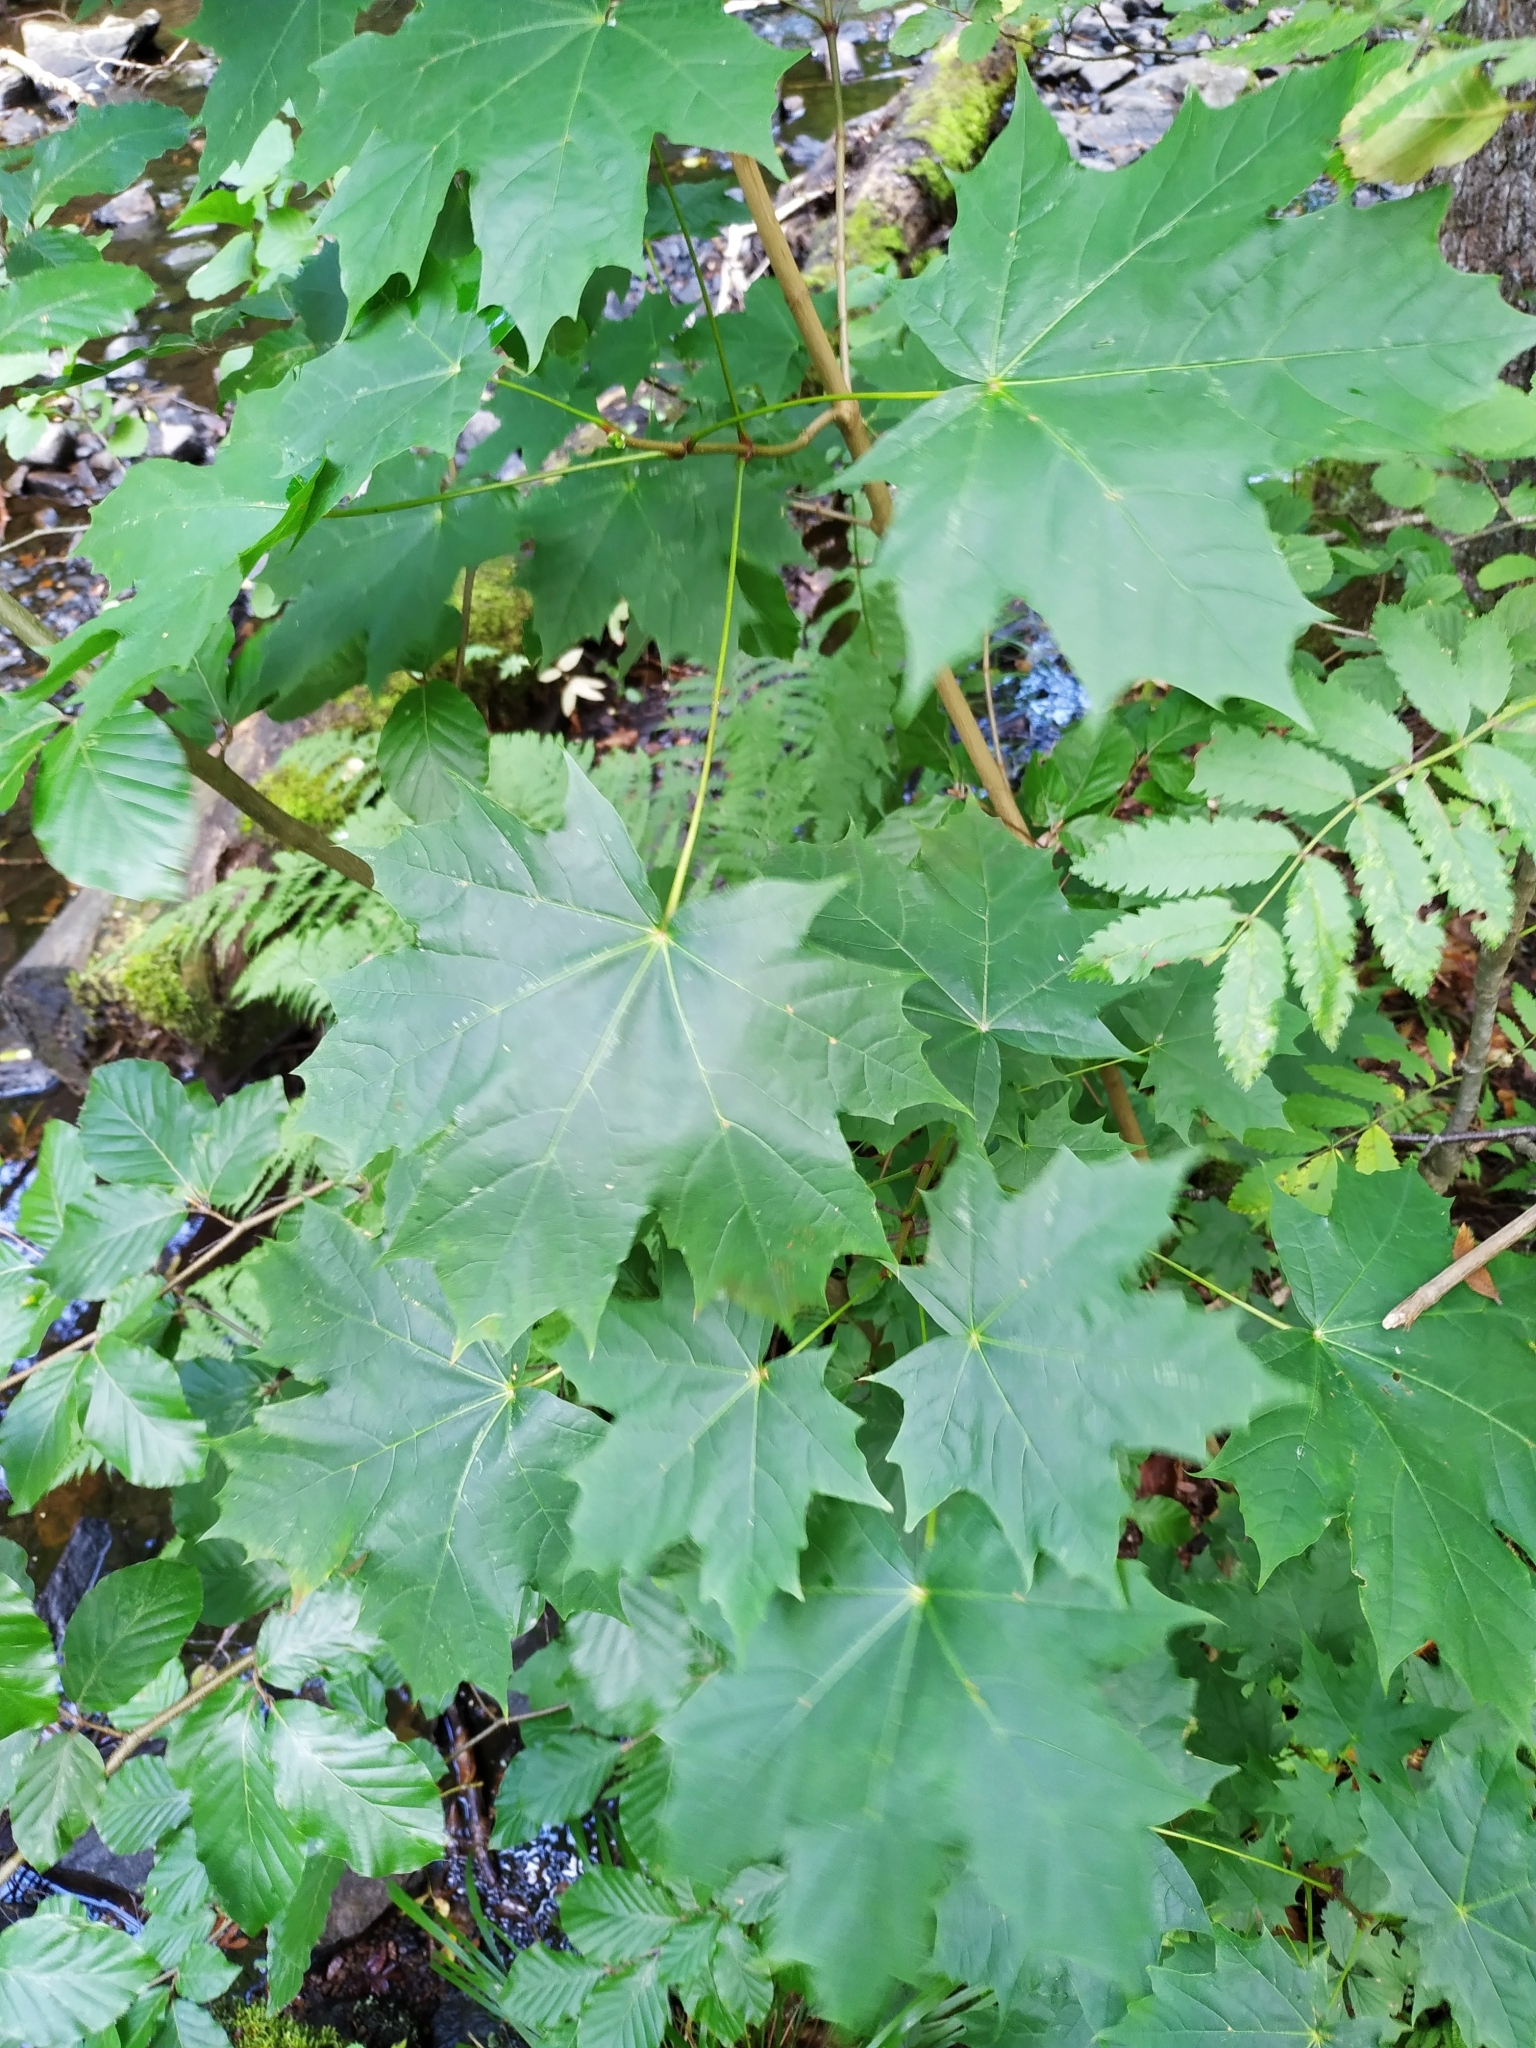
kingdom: Plantae
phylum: Tracheophyta
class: Magnoliopsida
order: Sapindales
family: Sapindaceae
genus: Acer
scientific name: Acer platanoides
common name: Norway maple
